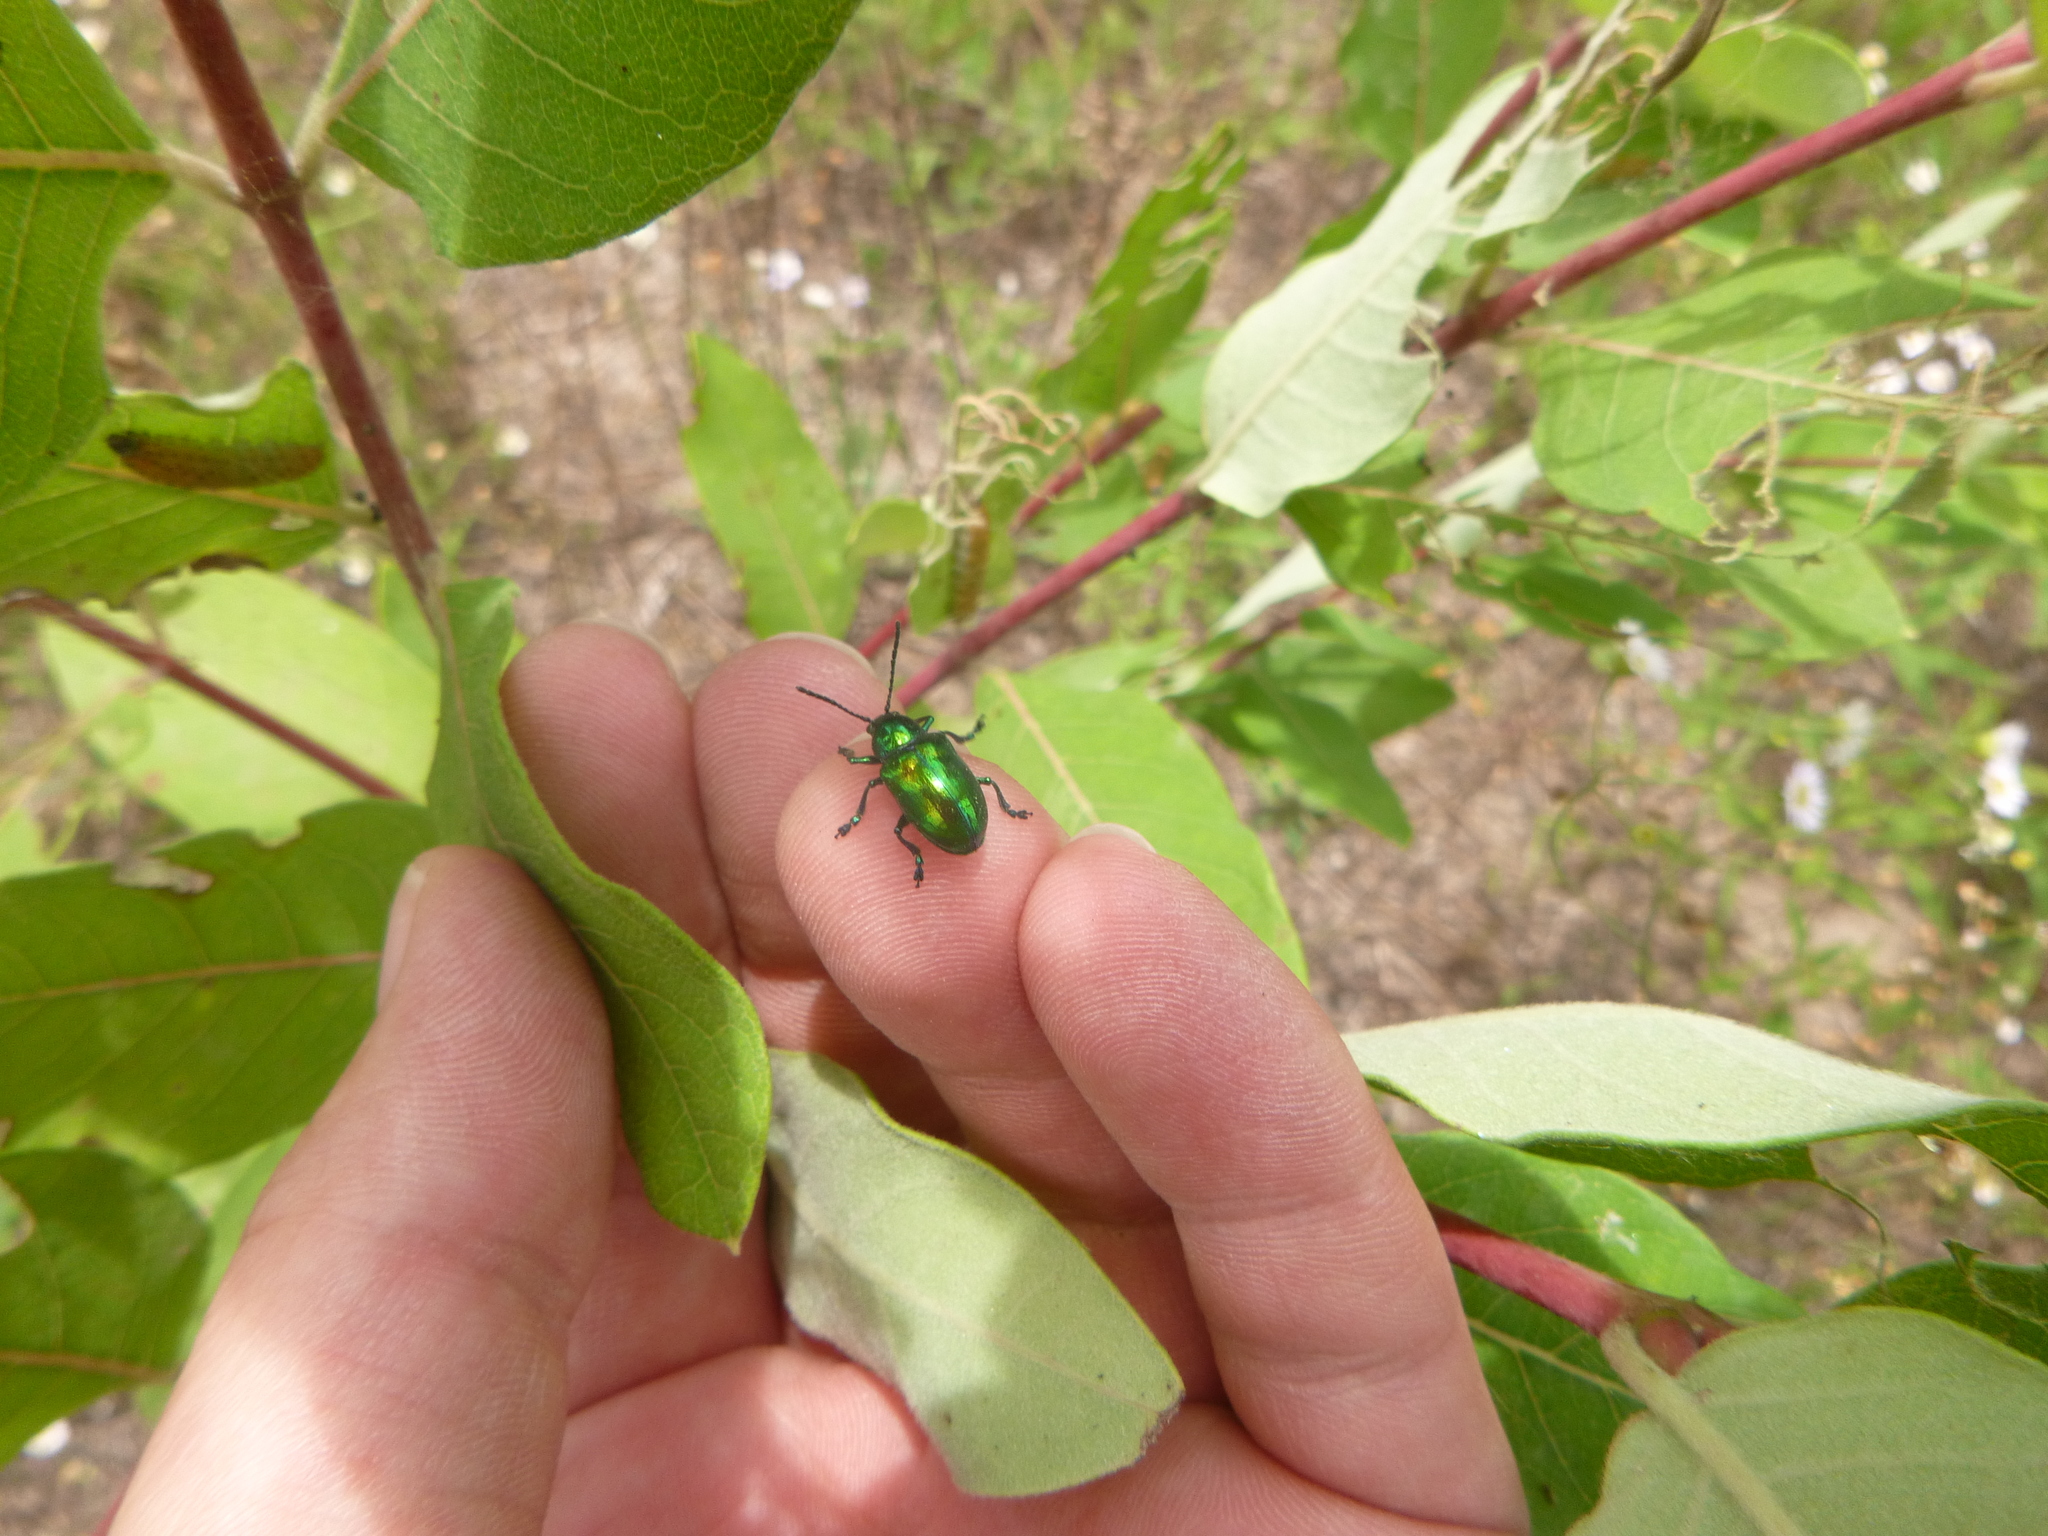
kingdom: Animalia
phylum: Arthropoda
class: Insecta
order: Coleoptera
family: Chrysomelidae
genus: Chrysochus
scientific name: Chrysochus auratus
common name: Dogbane leaf beetle
